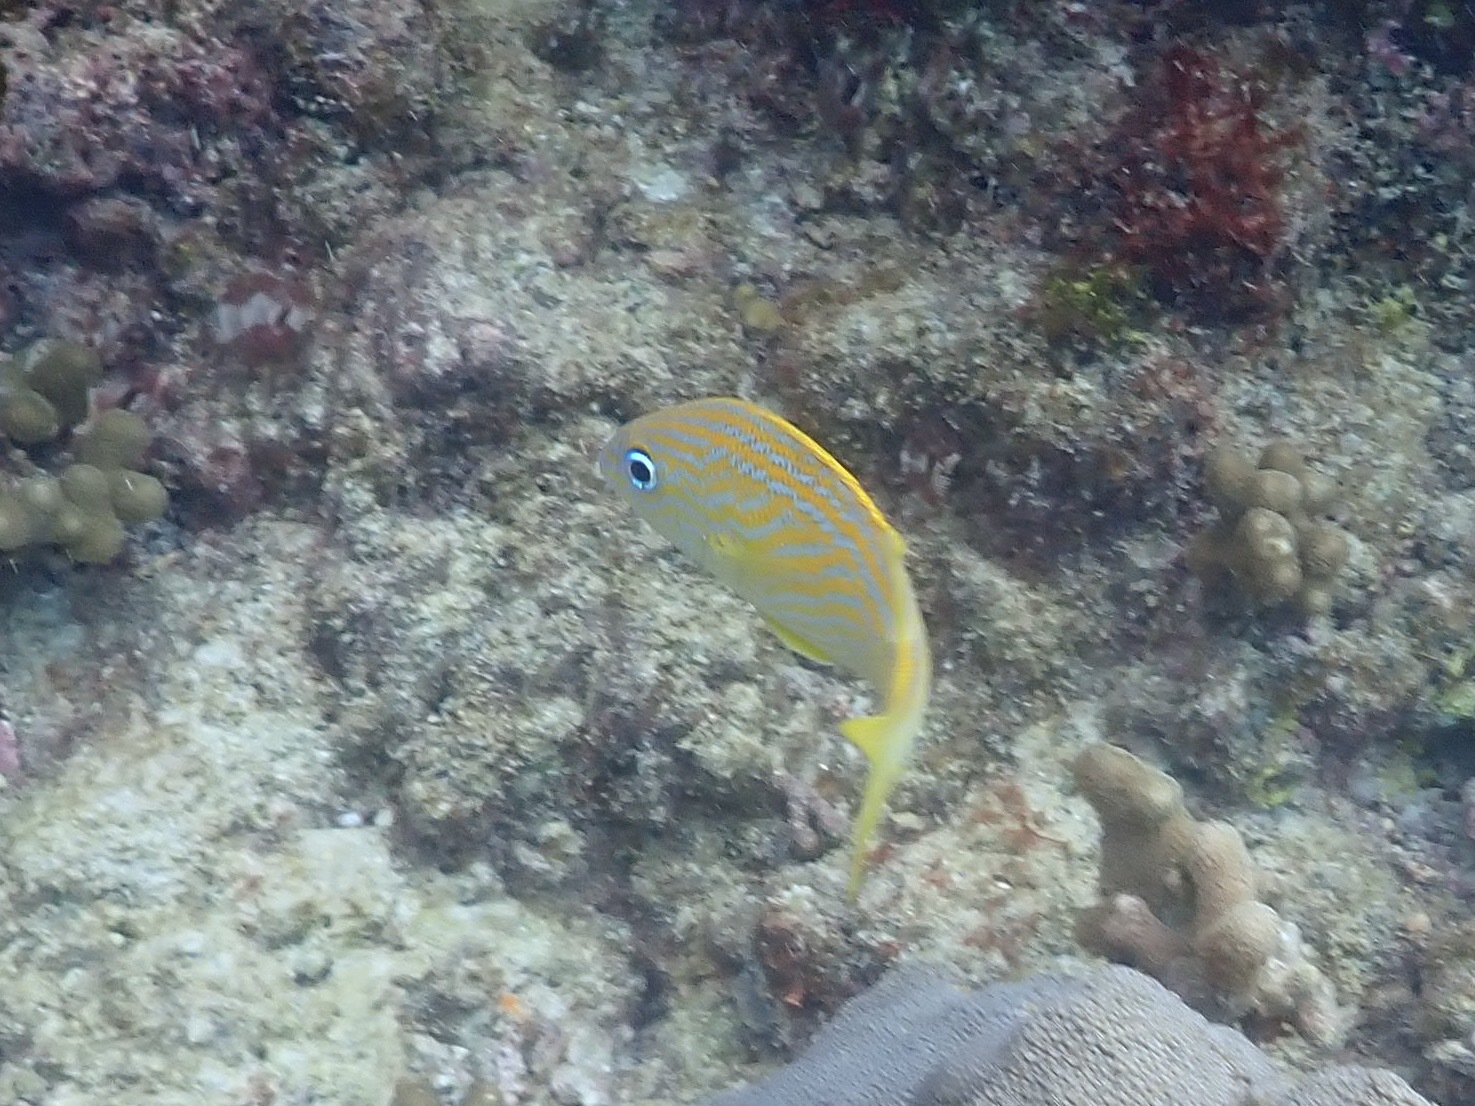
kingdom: Animalia
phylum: Chordata
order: Perciformes
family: Haemulidae
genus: Haemulon
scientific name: Haemulon flavolineatum
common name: French grunt
